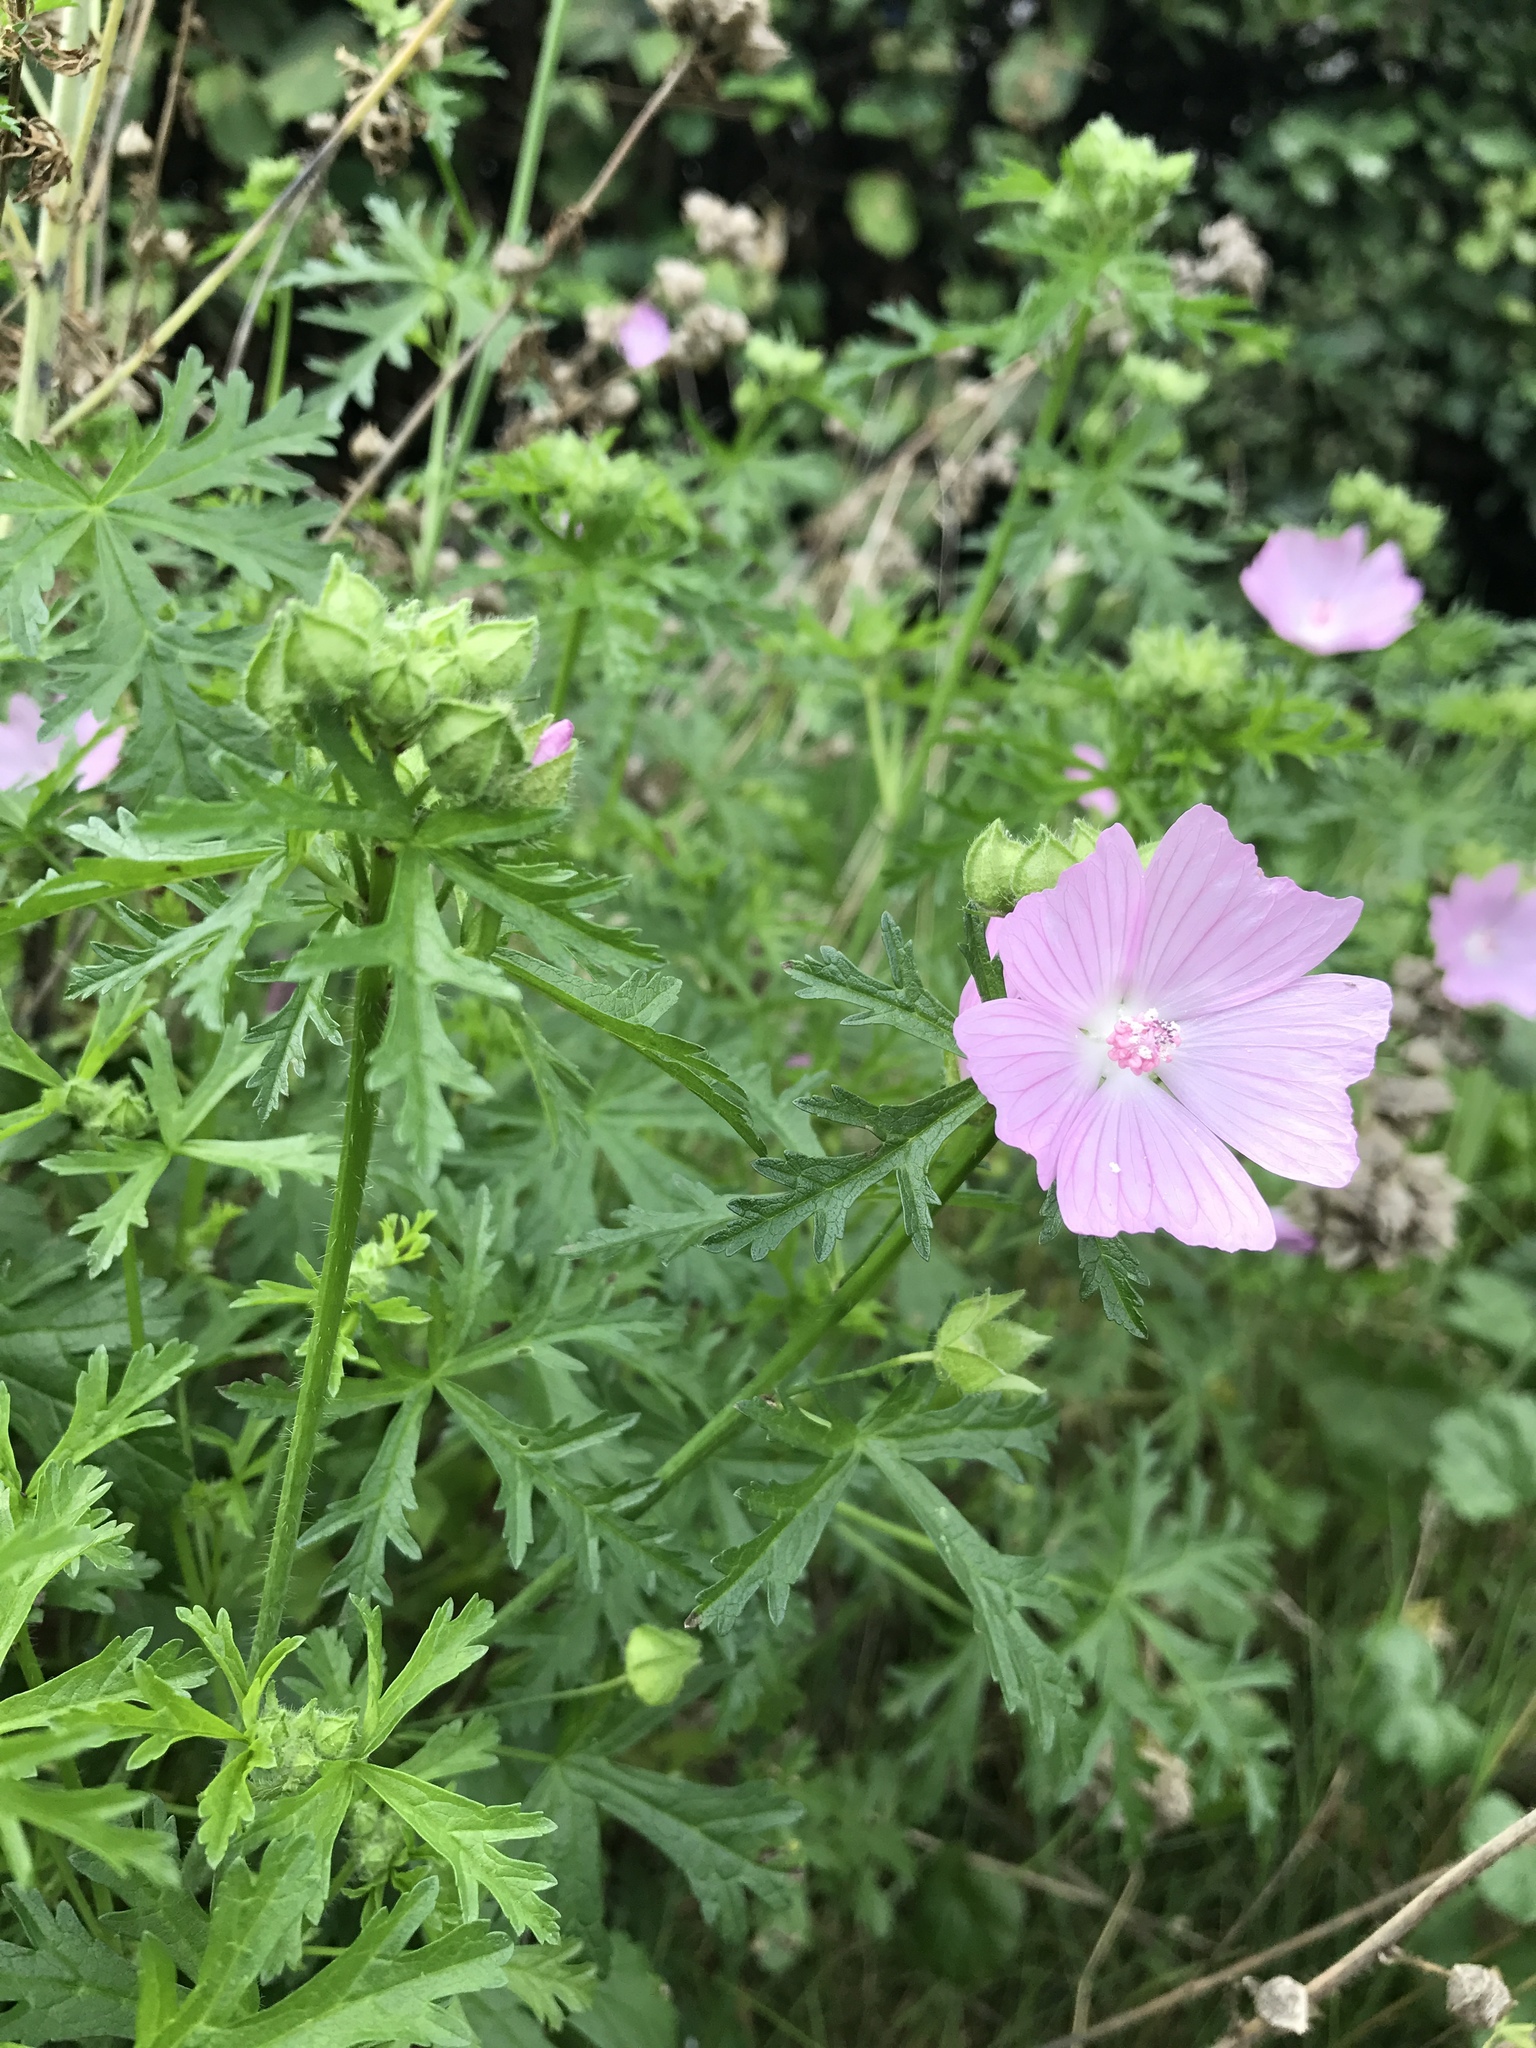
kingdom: Plantae
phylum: Tracheophyta
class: Magnoliopsida
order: Malvales
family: Malvaceae
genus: Malva
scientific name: Malva moschata
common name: Musk mallow
